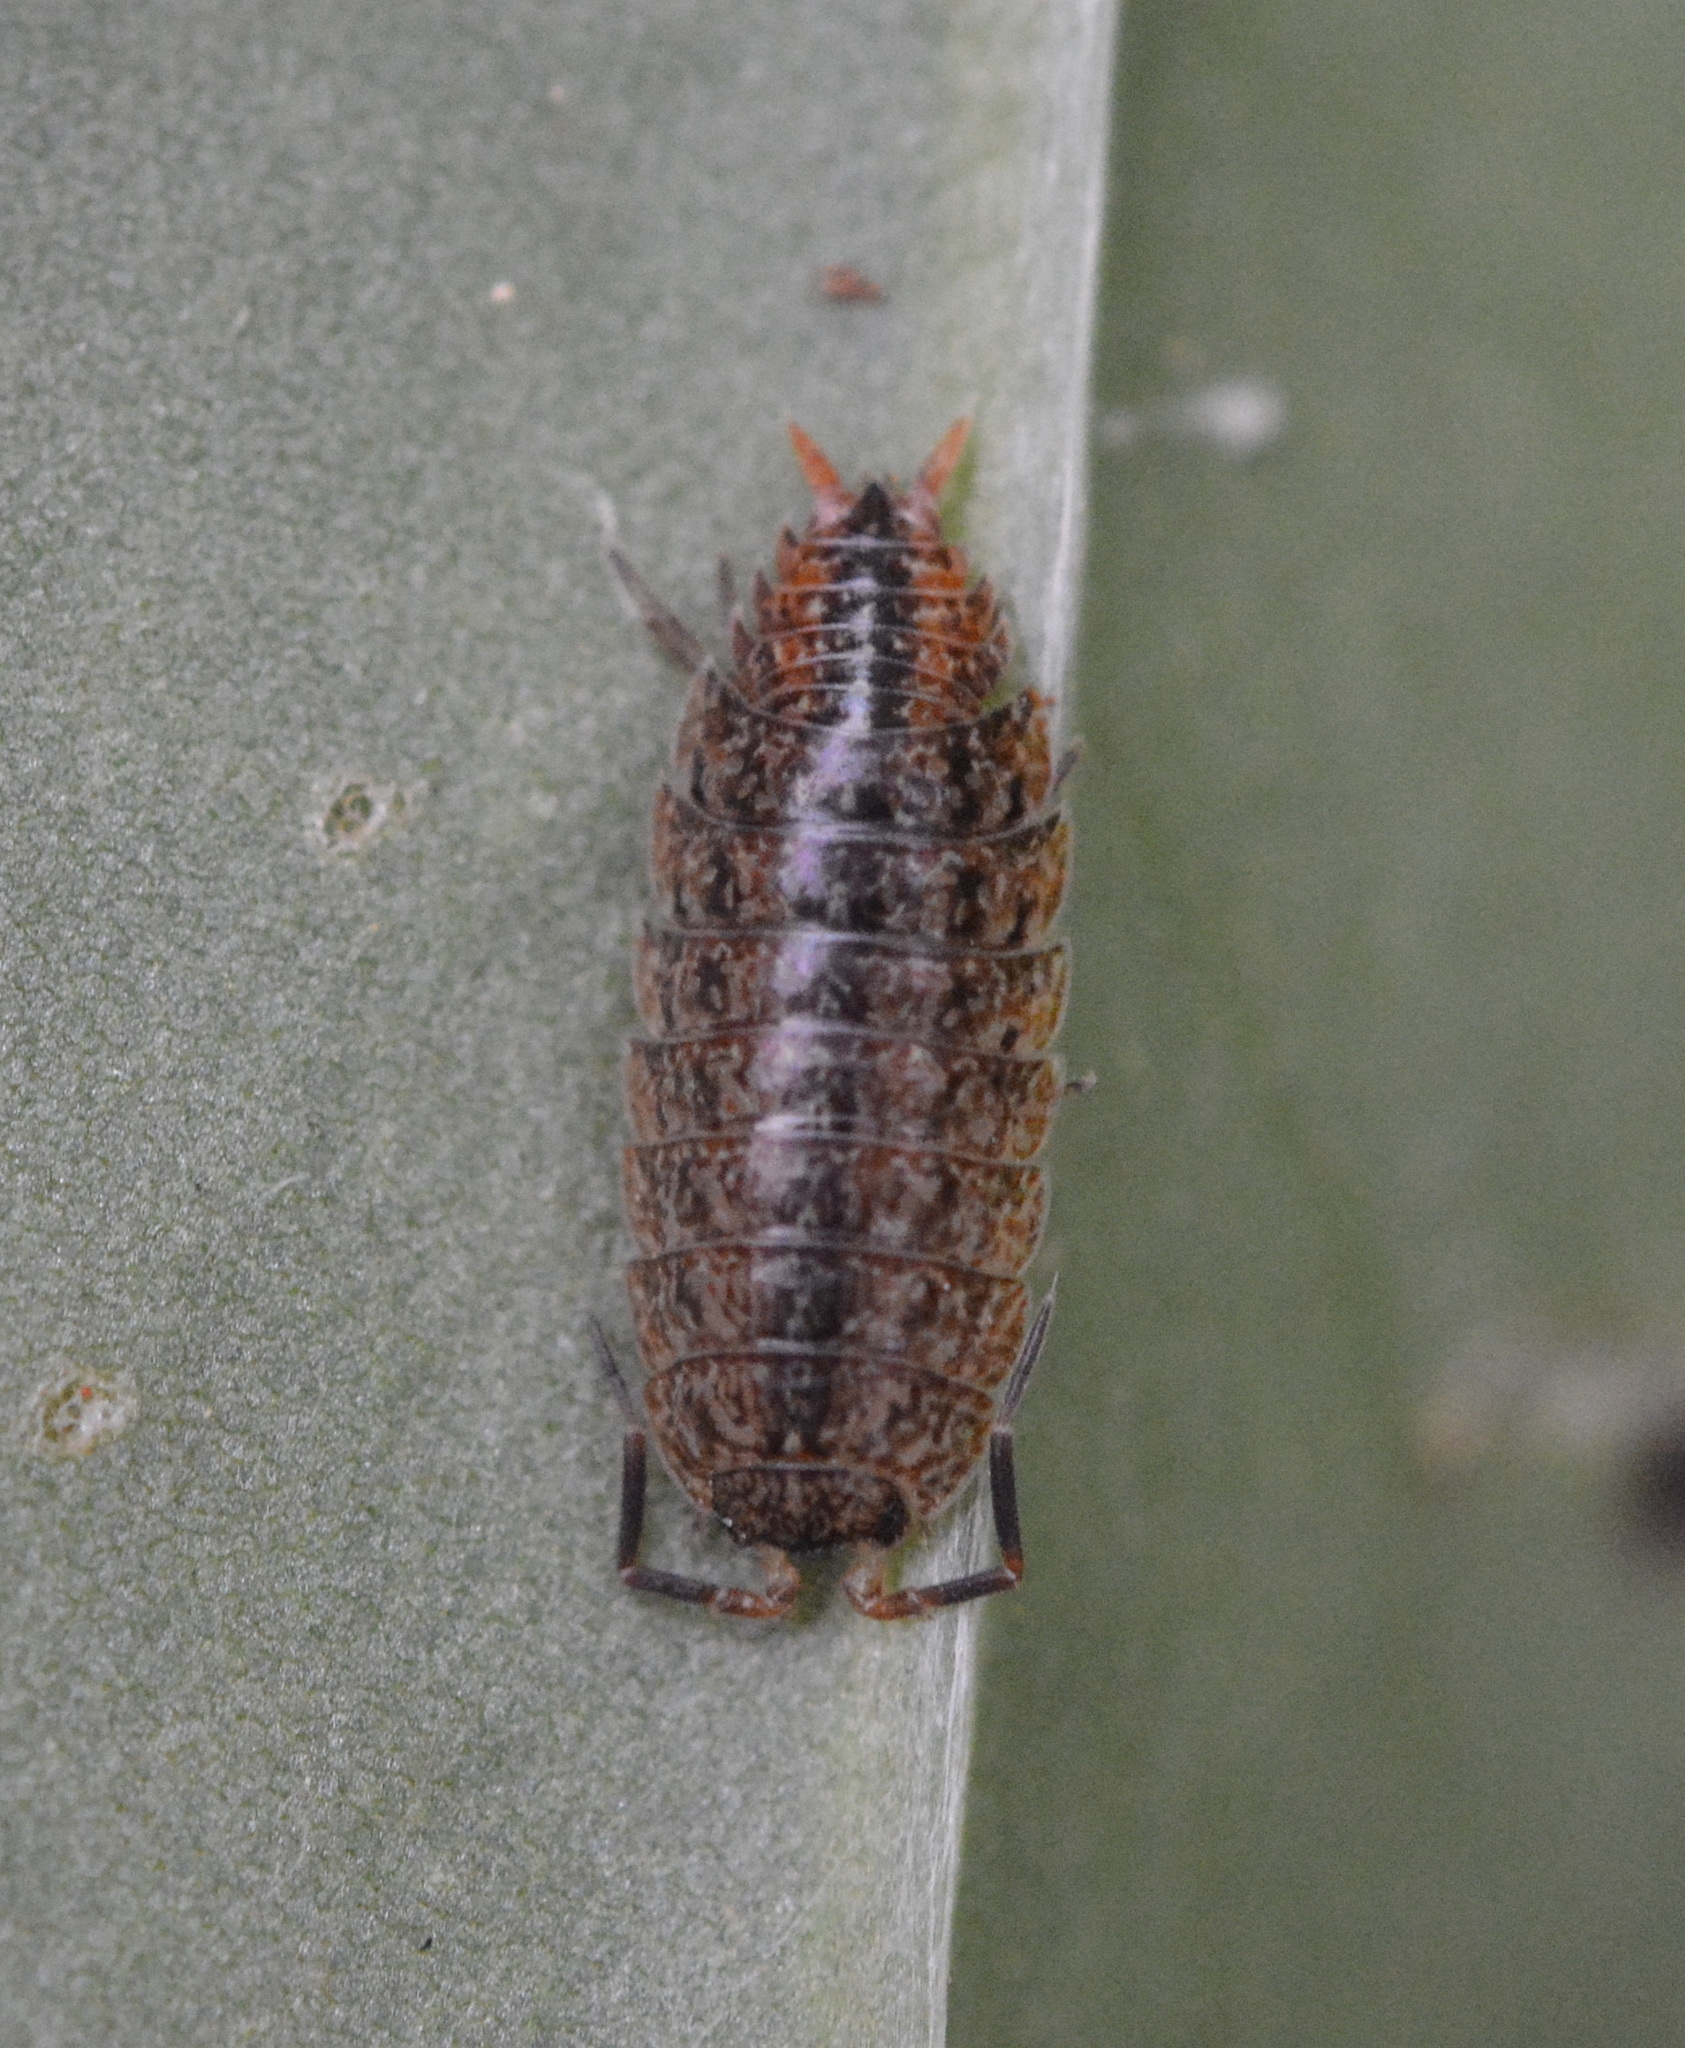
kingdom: Animalia
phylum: Arthropoda
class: Malacostraca
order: Isopoda
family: Porcellionidae
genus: Porcellionides
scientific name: Porcellionides virgatus
